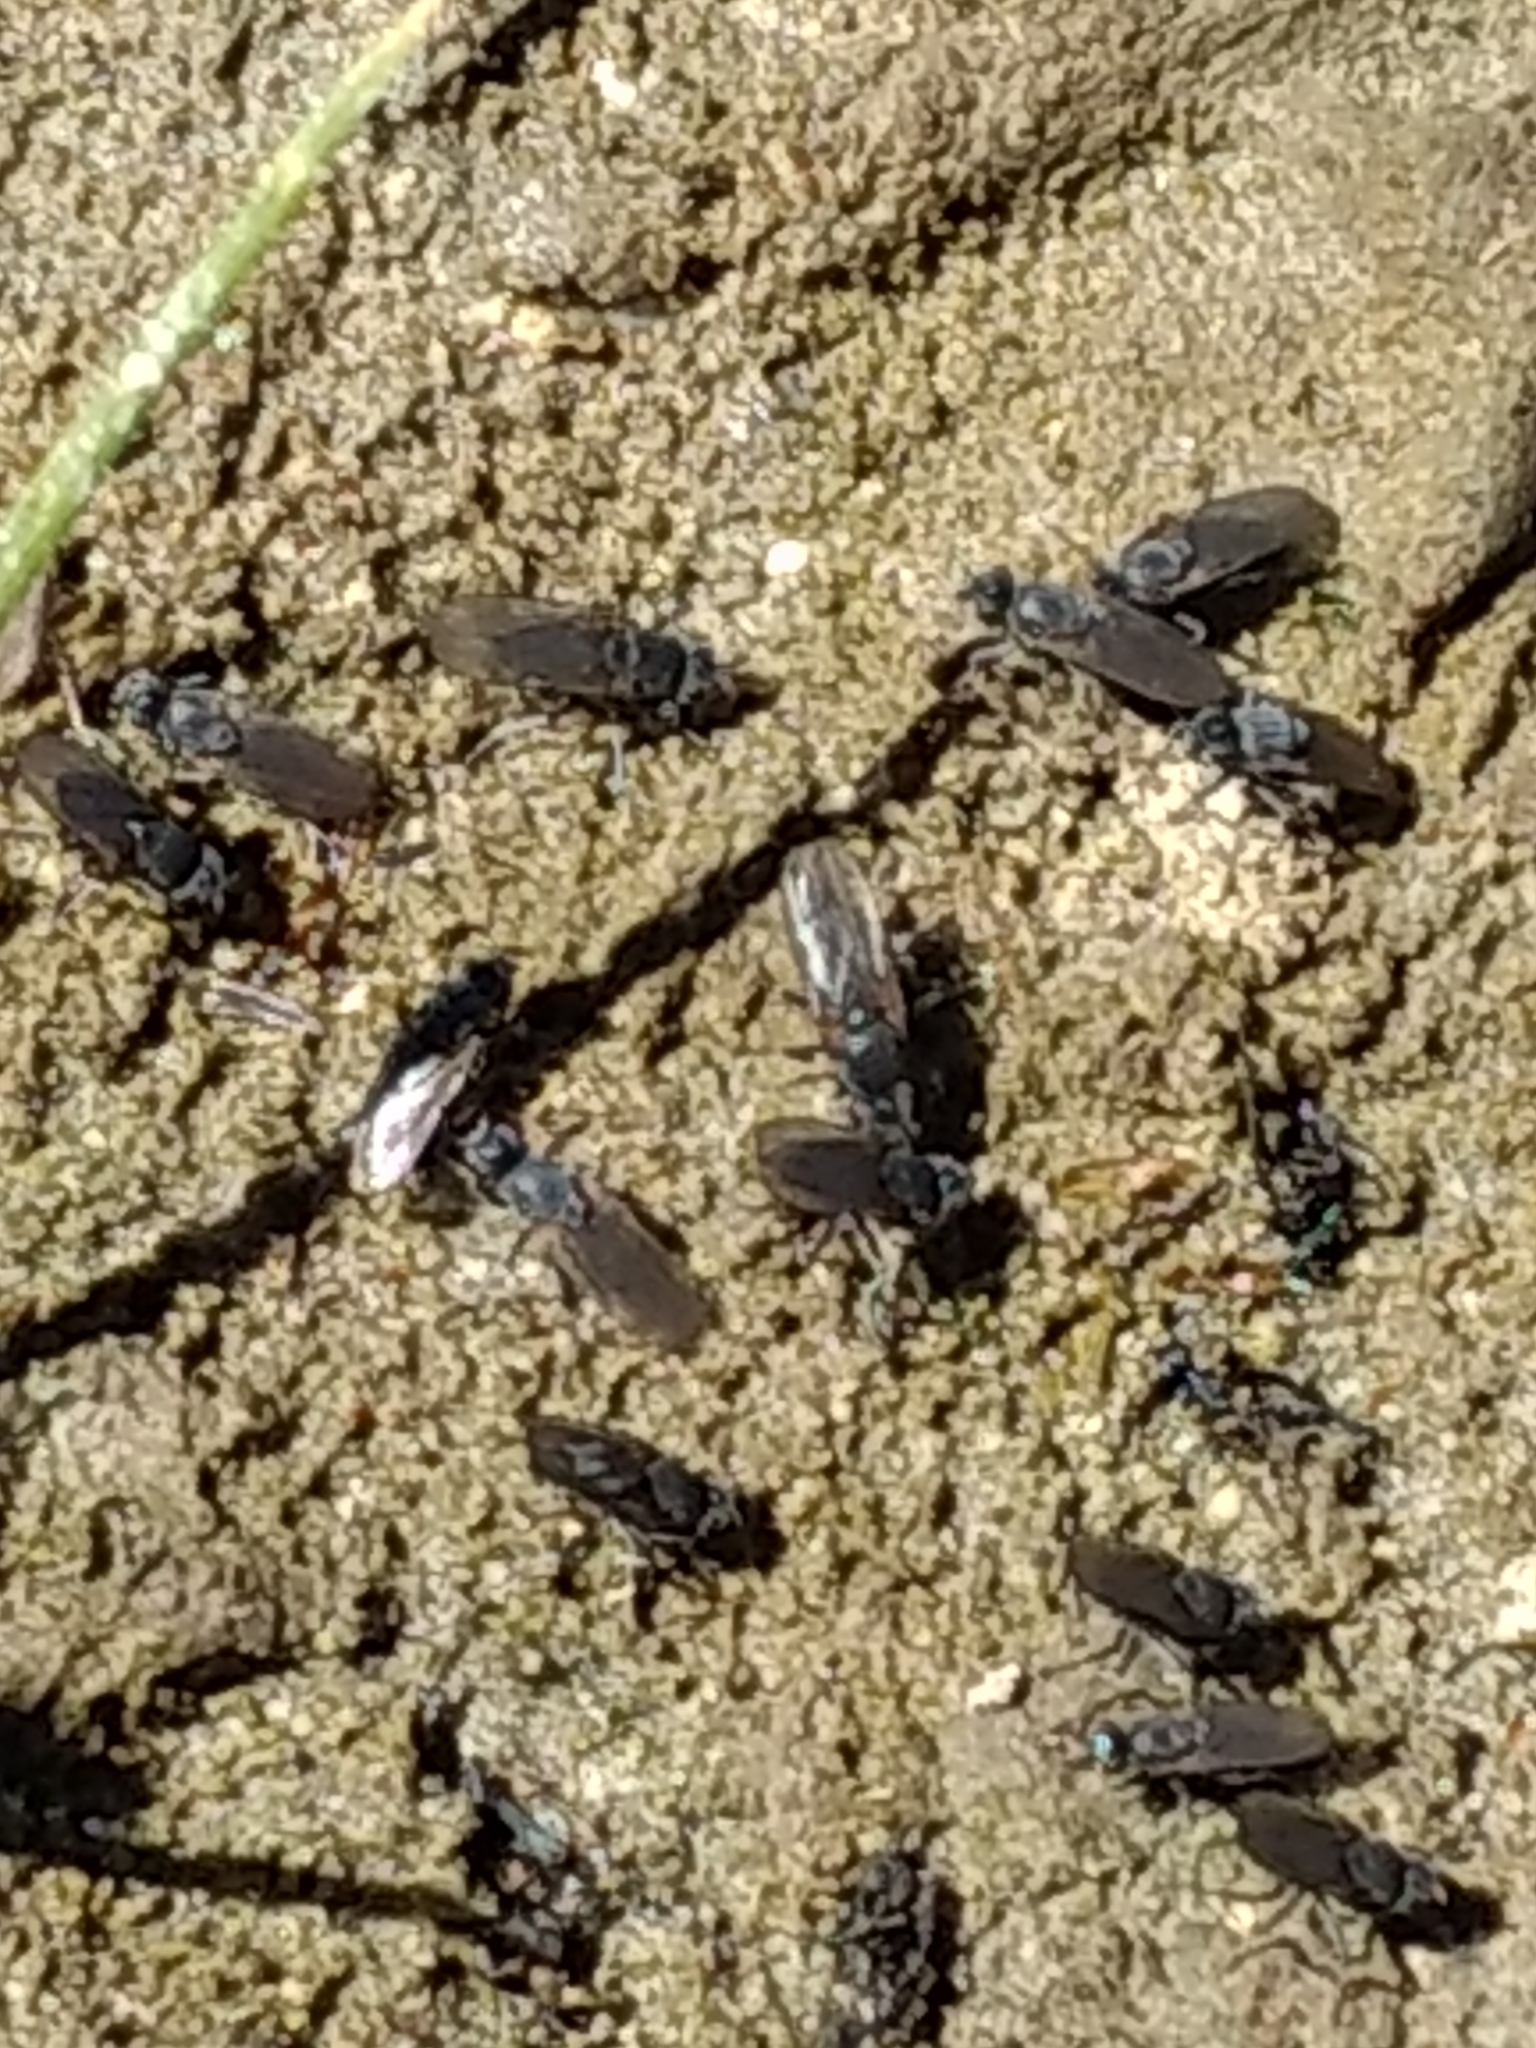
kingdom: Animalia
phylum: Arthropoda
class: Insecta
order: Diptera
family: Ephydridae
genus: Cirrula
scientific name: Cirrula hians
